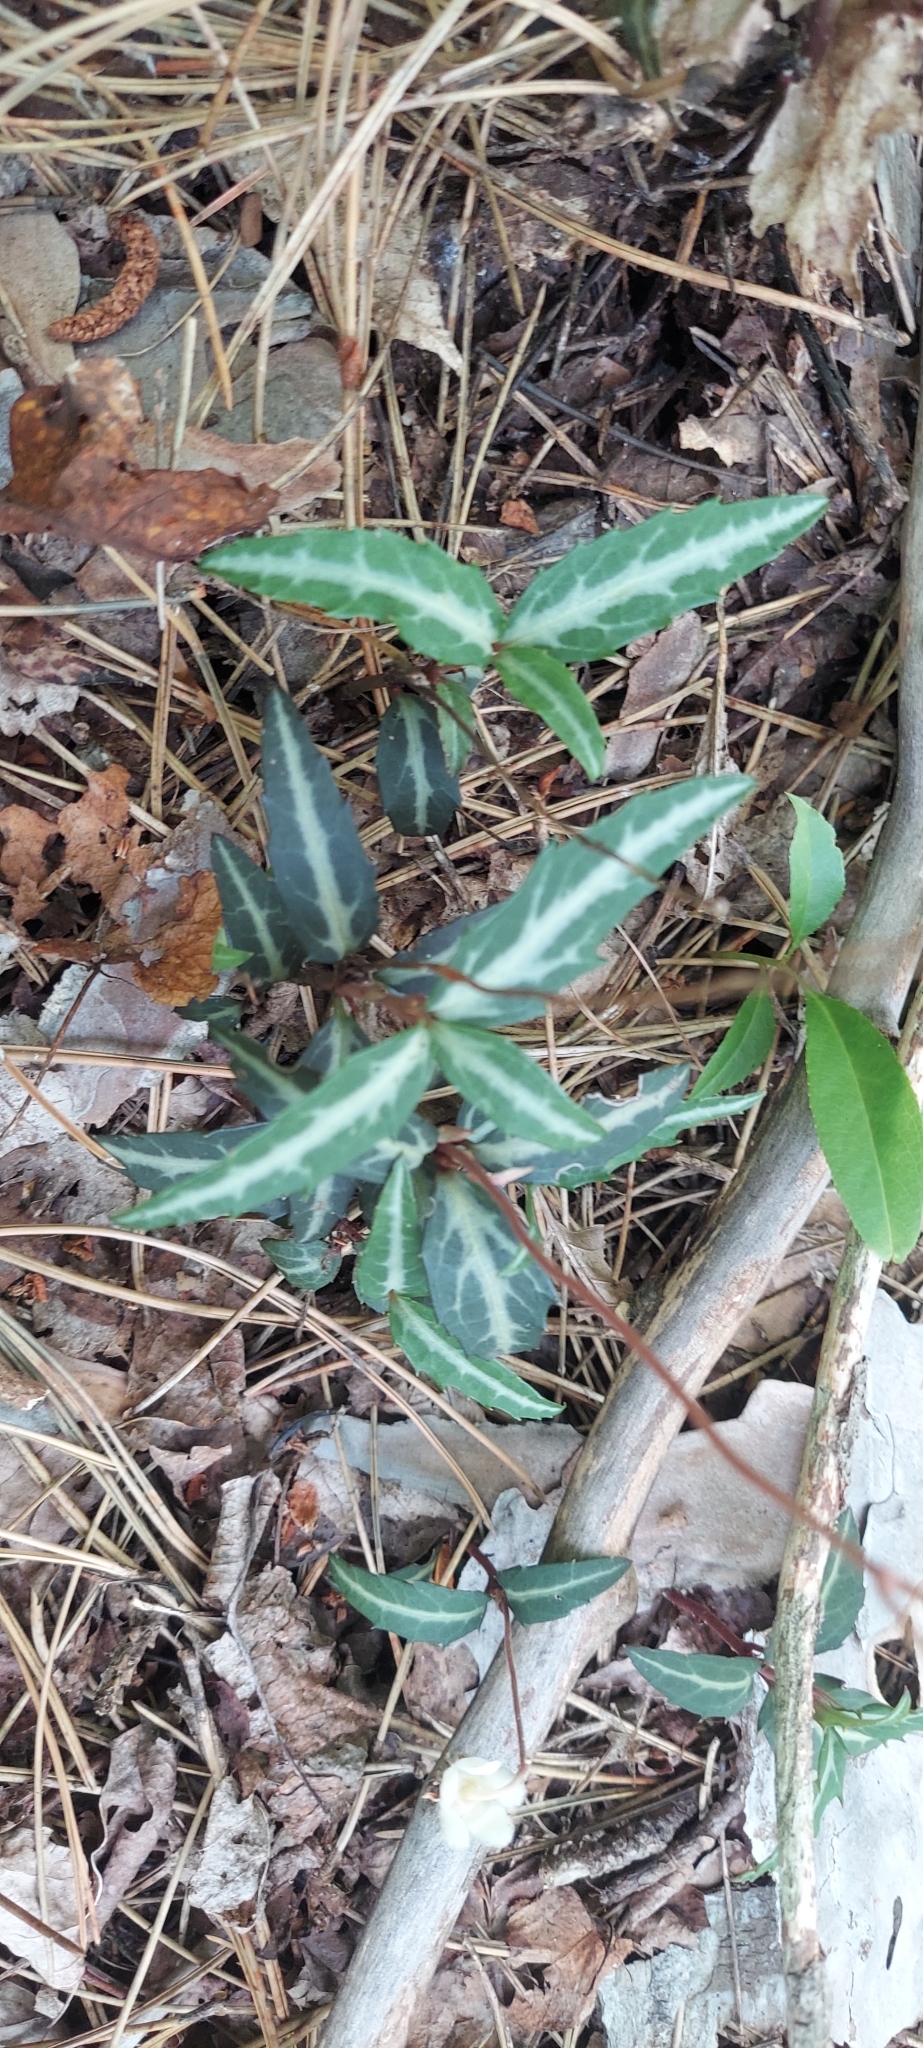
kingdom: Plantae
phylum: Tracheophyta
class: Magnoliopsida
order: Ericales
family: Ericaceae
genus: Chimaphila
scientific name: Chimaphila maculata
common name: Spotted pipsissewa
